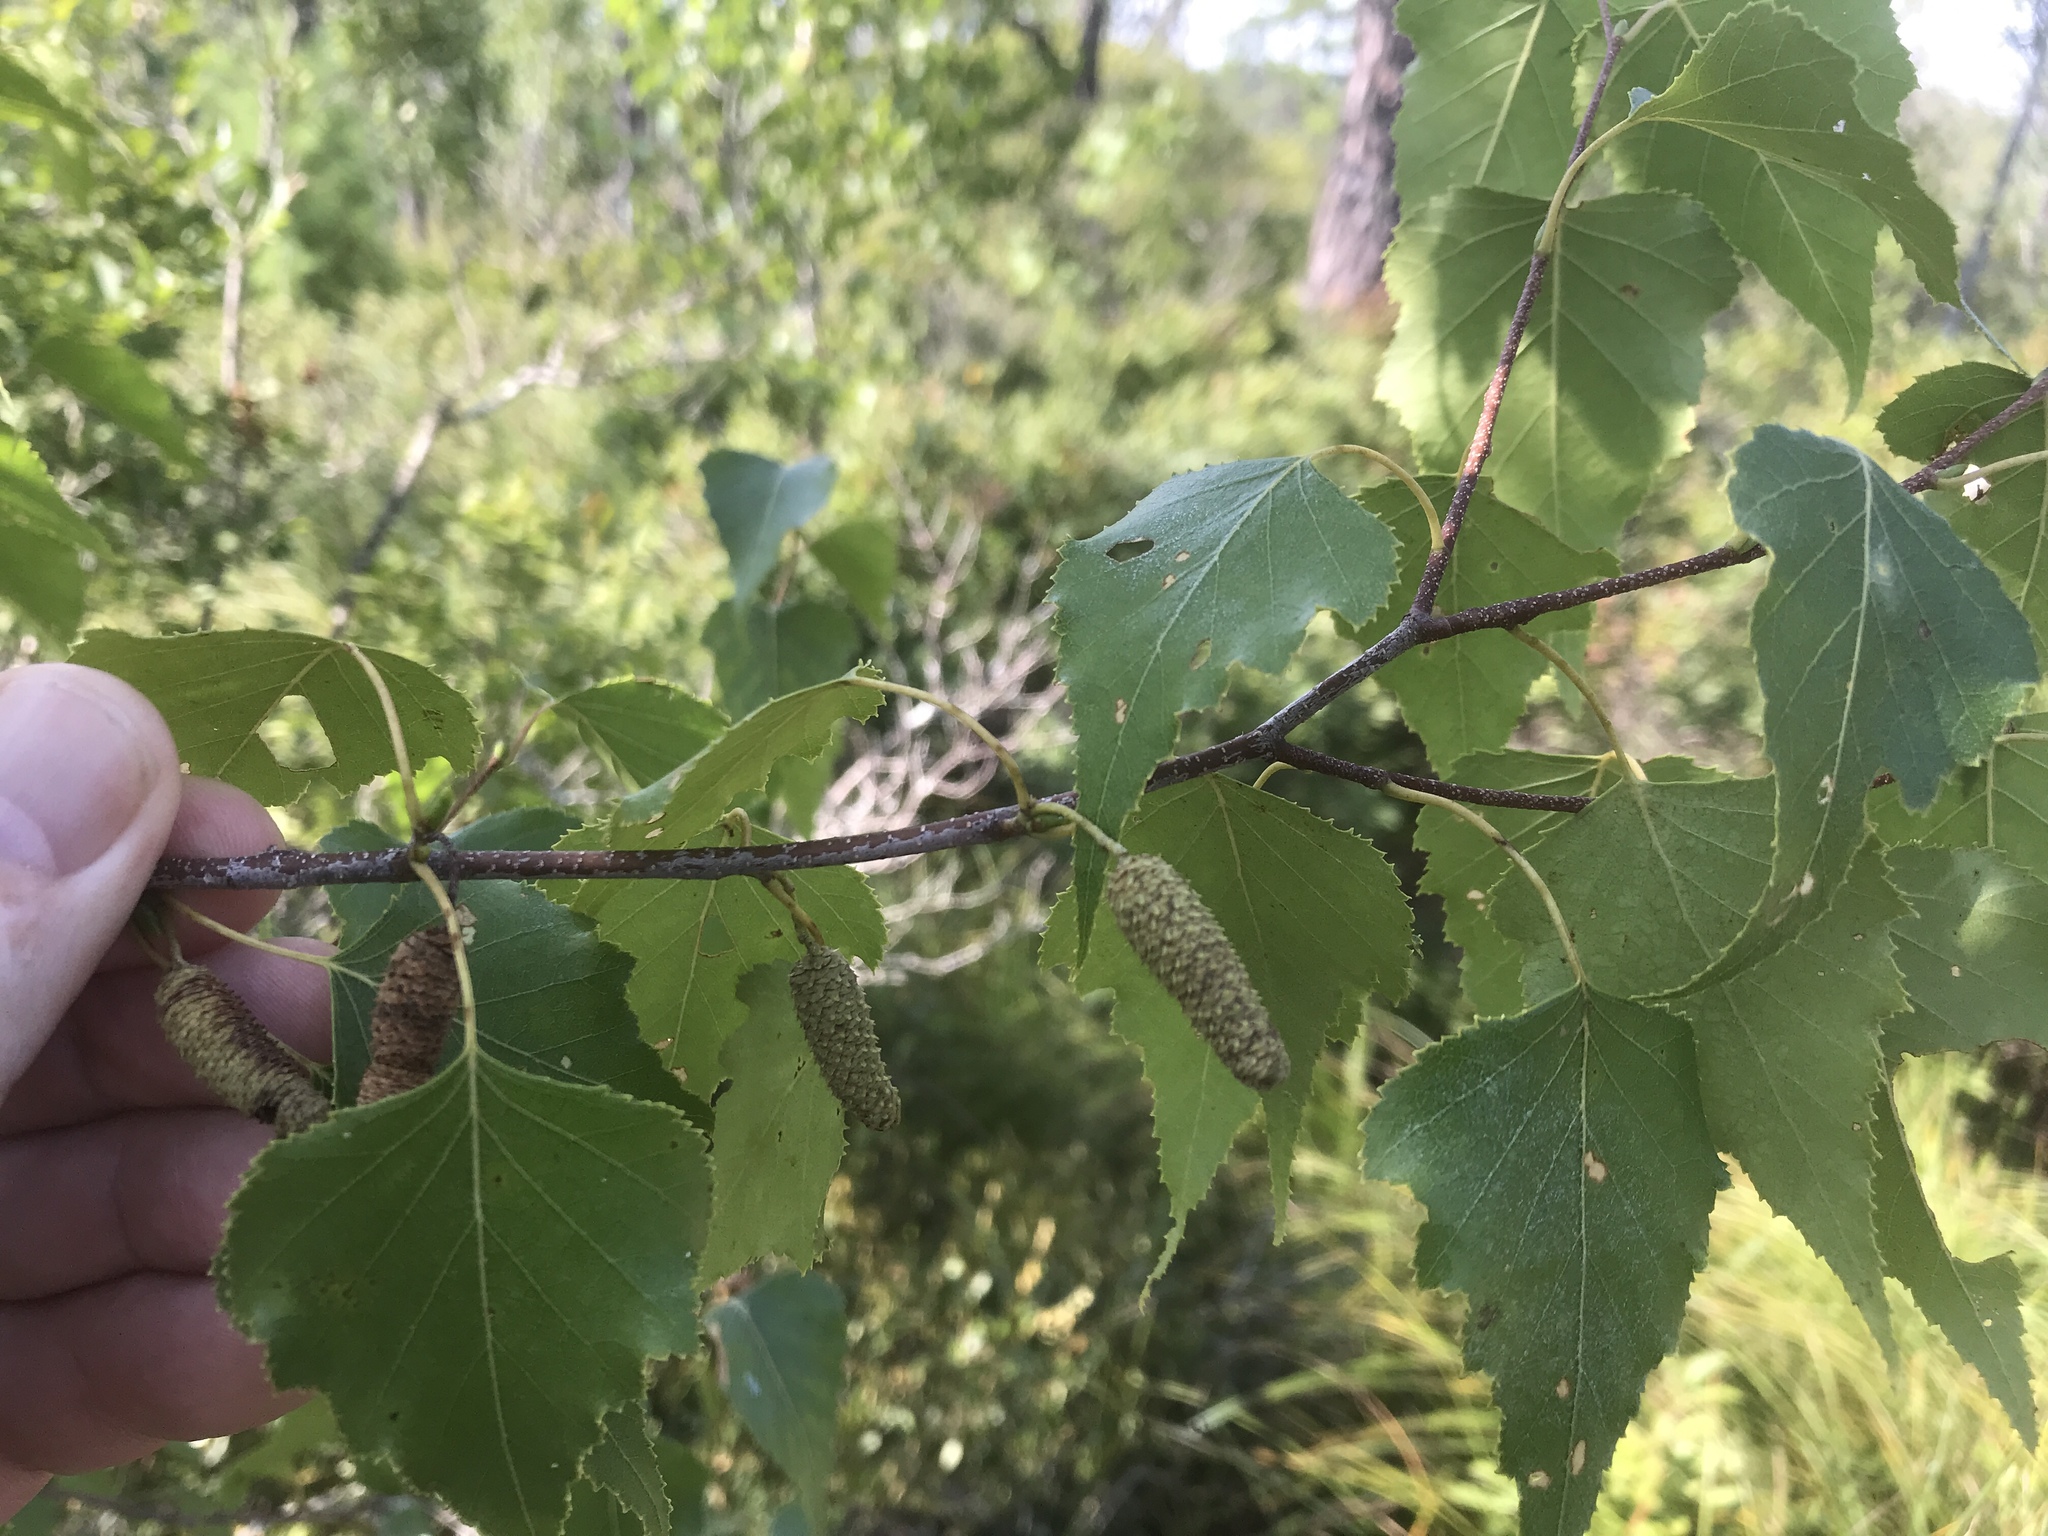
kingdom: Plantae
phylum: Tracheophyta
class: Magnoliopsida
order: Fagales
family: Betulaceae
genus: Betula
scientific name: Betula populifolia
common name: Fire birch
